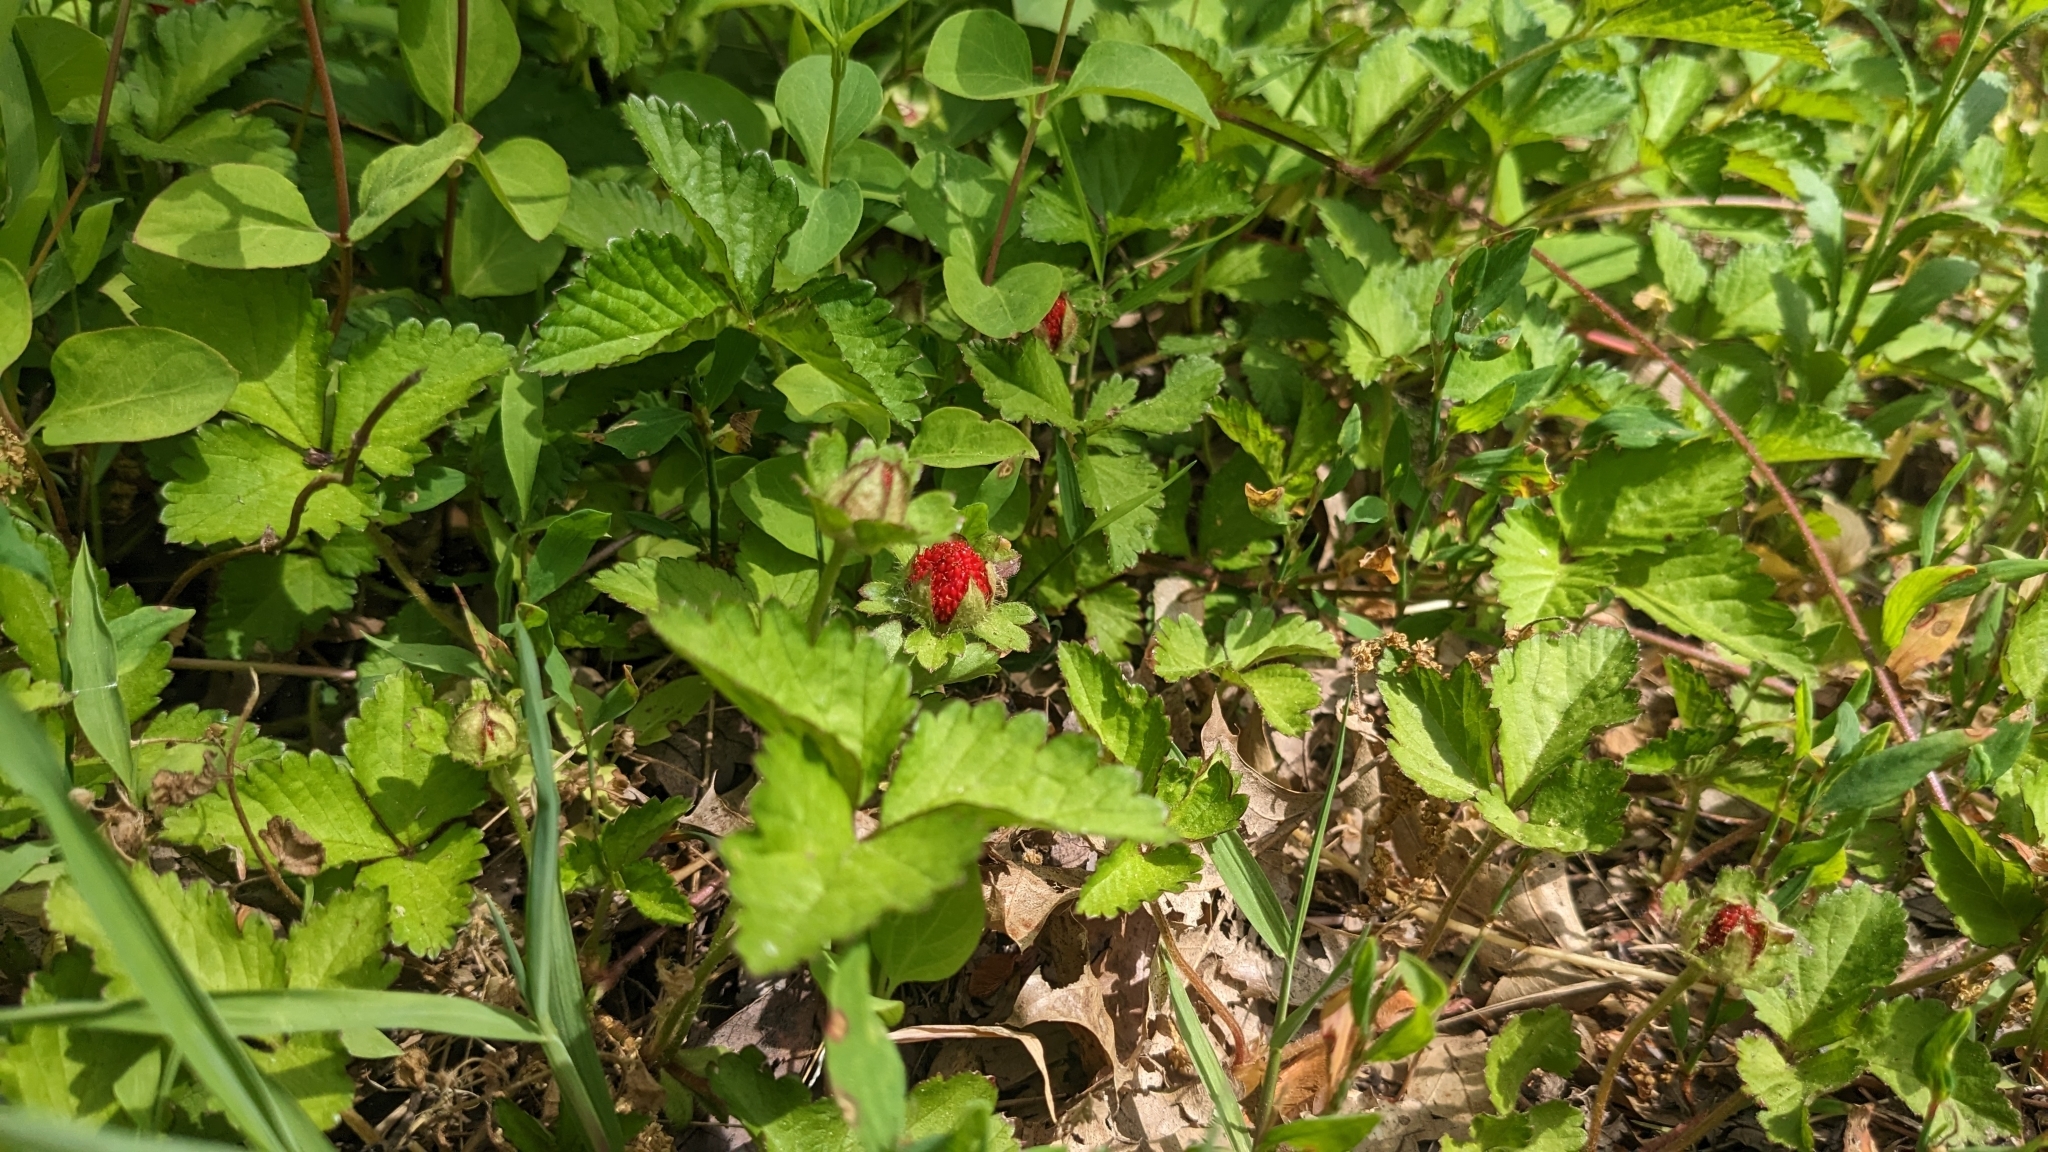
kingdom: Plantae
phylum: Tracheophyta
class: Magnoliopsida
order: Rosales
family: Rosaceae
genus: Potentilla
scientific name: Potentilla indica
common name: Yellow-flowered strawberry
